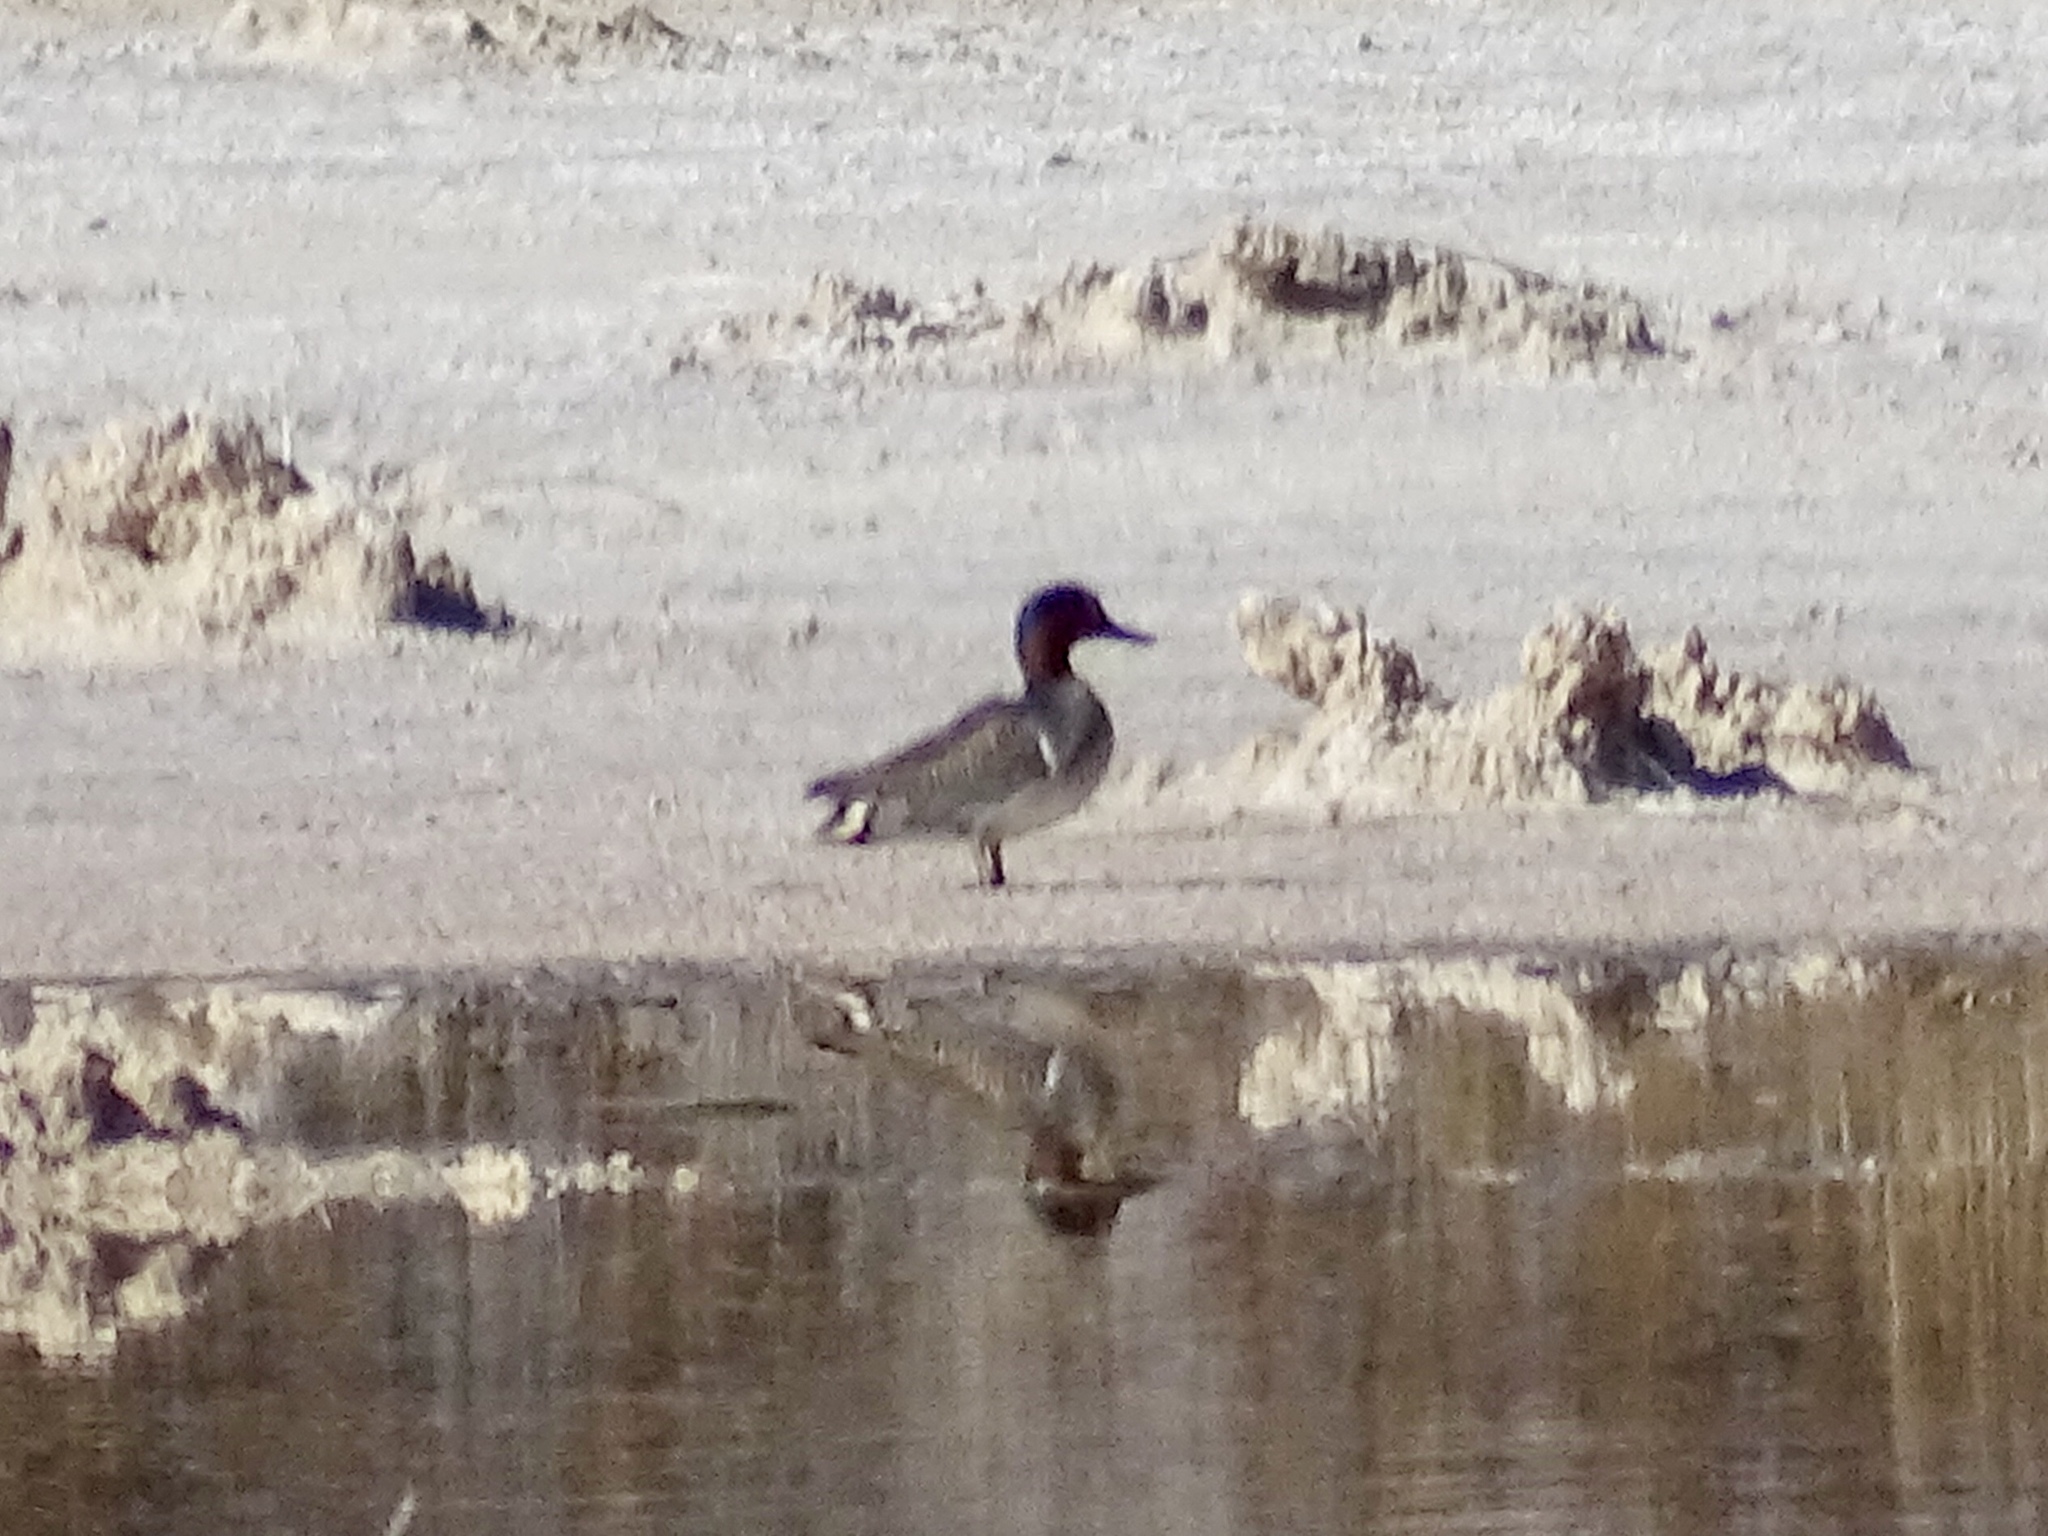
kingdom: Animalia
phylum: Chordata
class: Aves
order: Anseriformes
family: Anatidae
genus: Anas
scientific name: Anas crecca
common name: Eurasian teal
